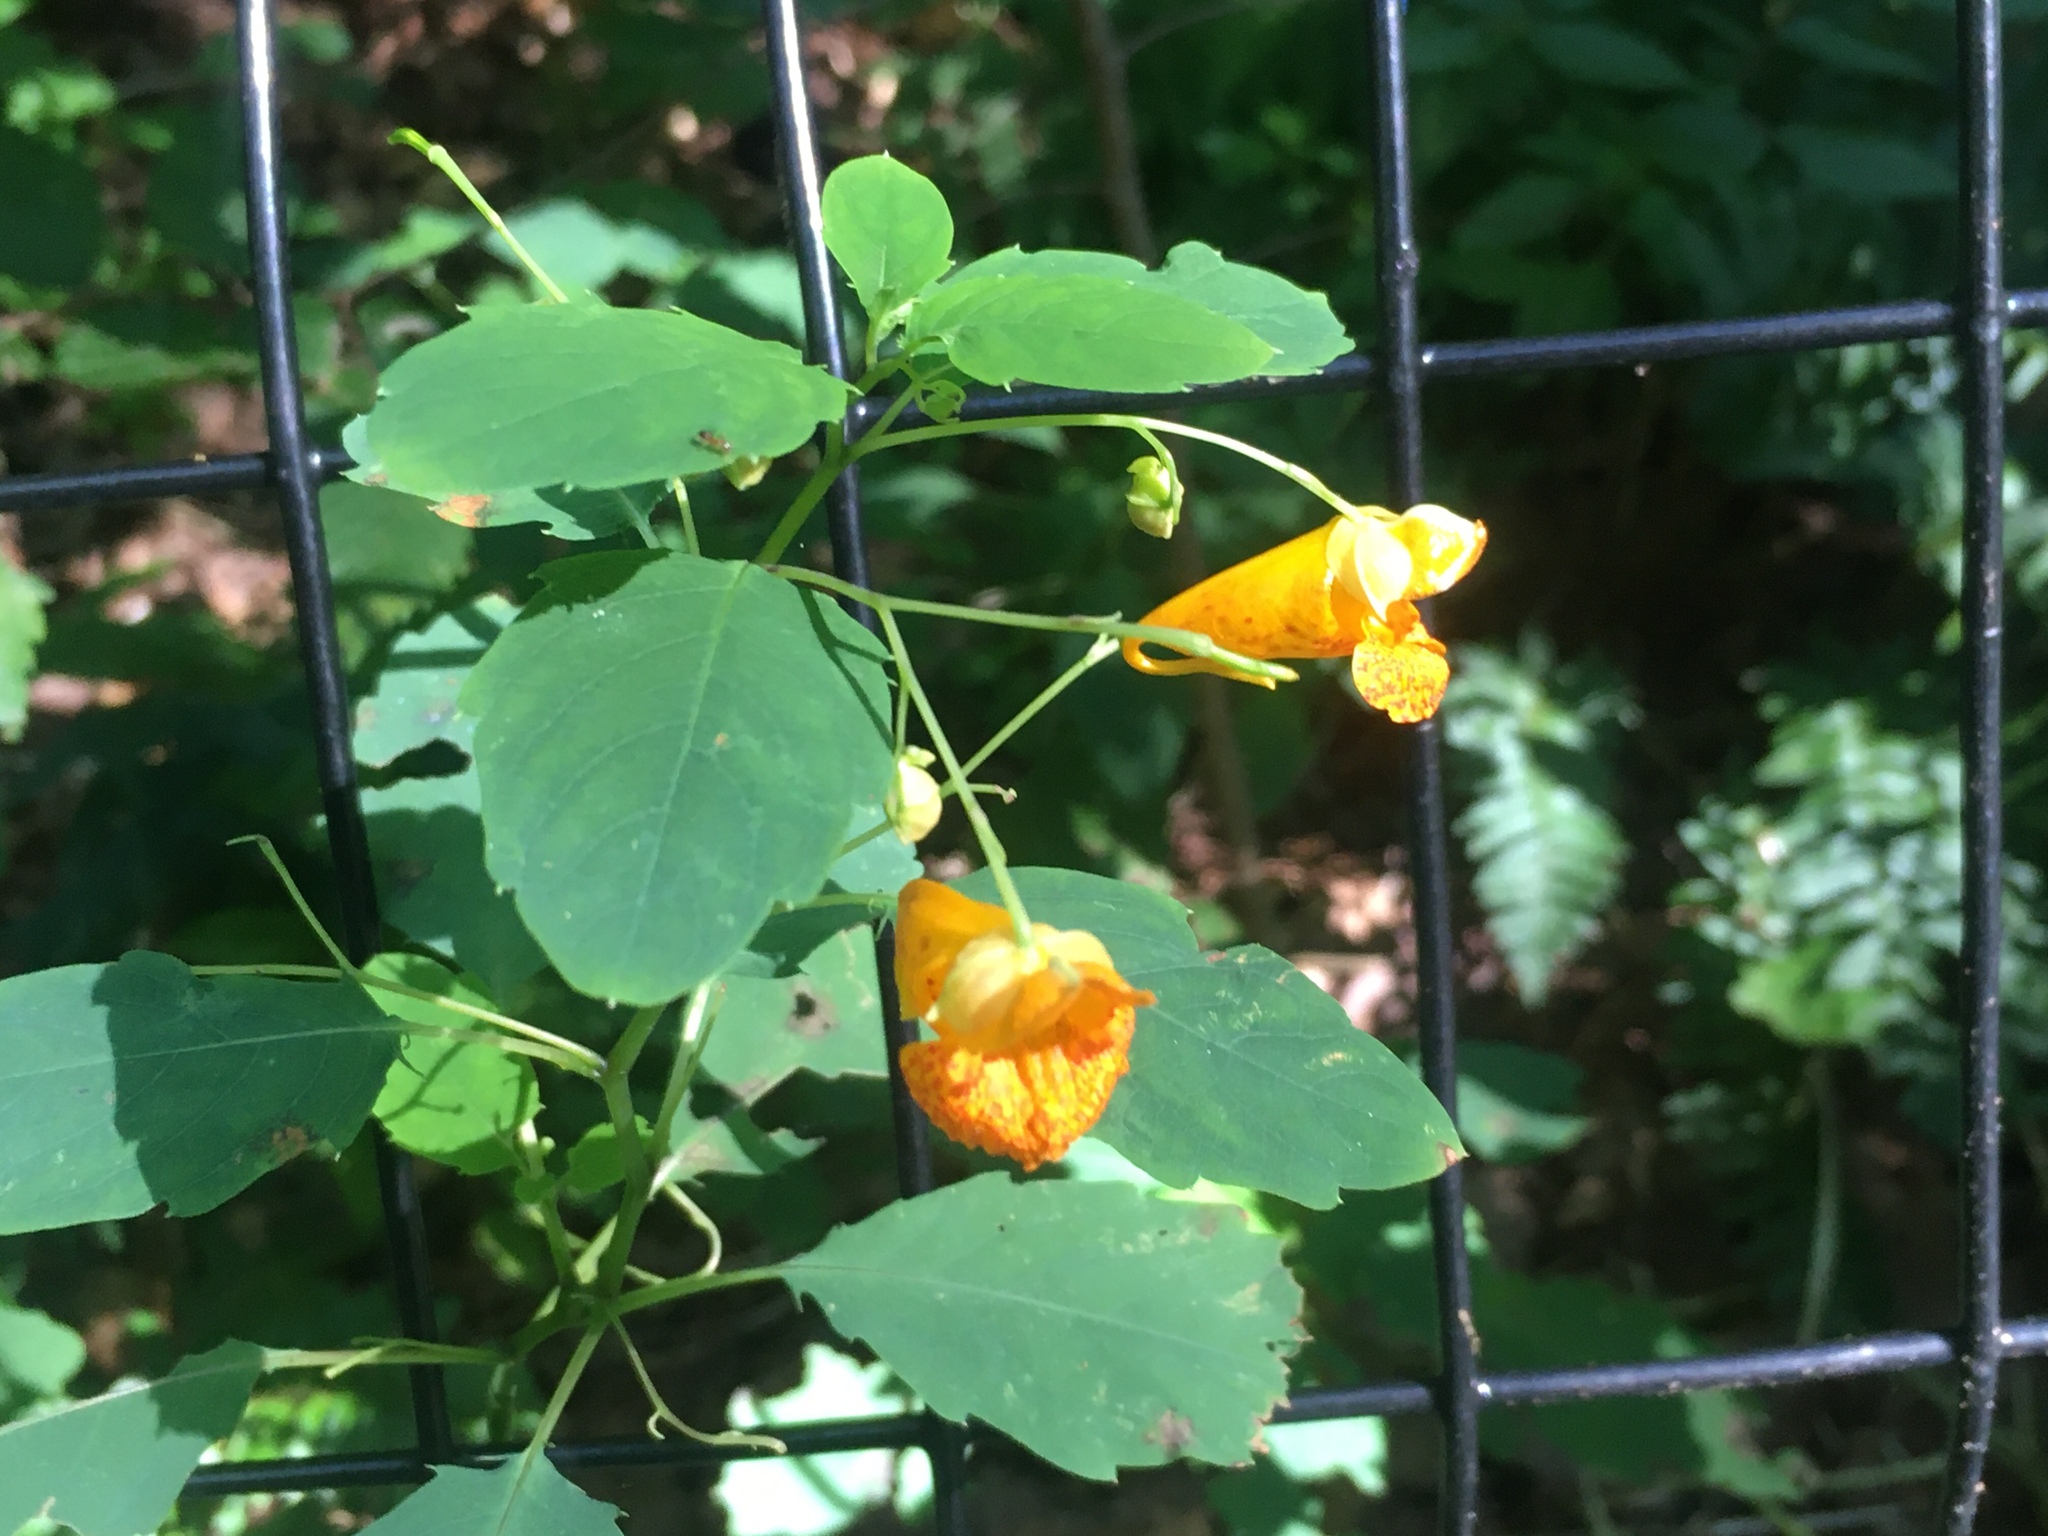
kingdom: Plantae
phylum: Tracheophyta
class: Magnoliopsida
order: Ericales
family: Balsaminaceae
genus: Impatiens
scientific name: Impatiens capensis
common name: Orange balsam
